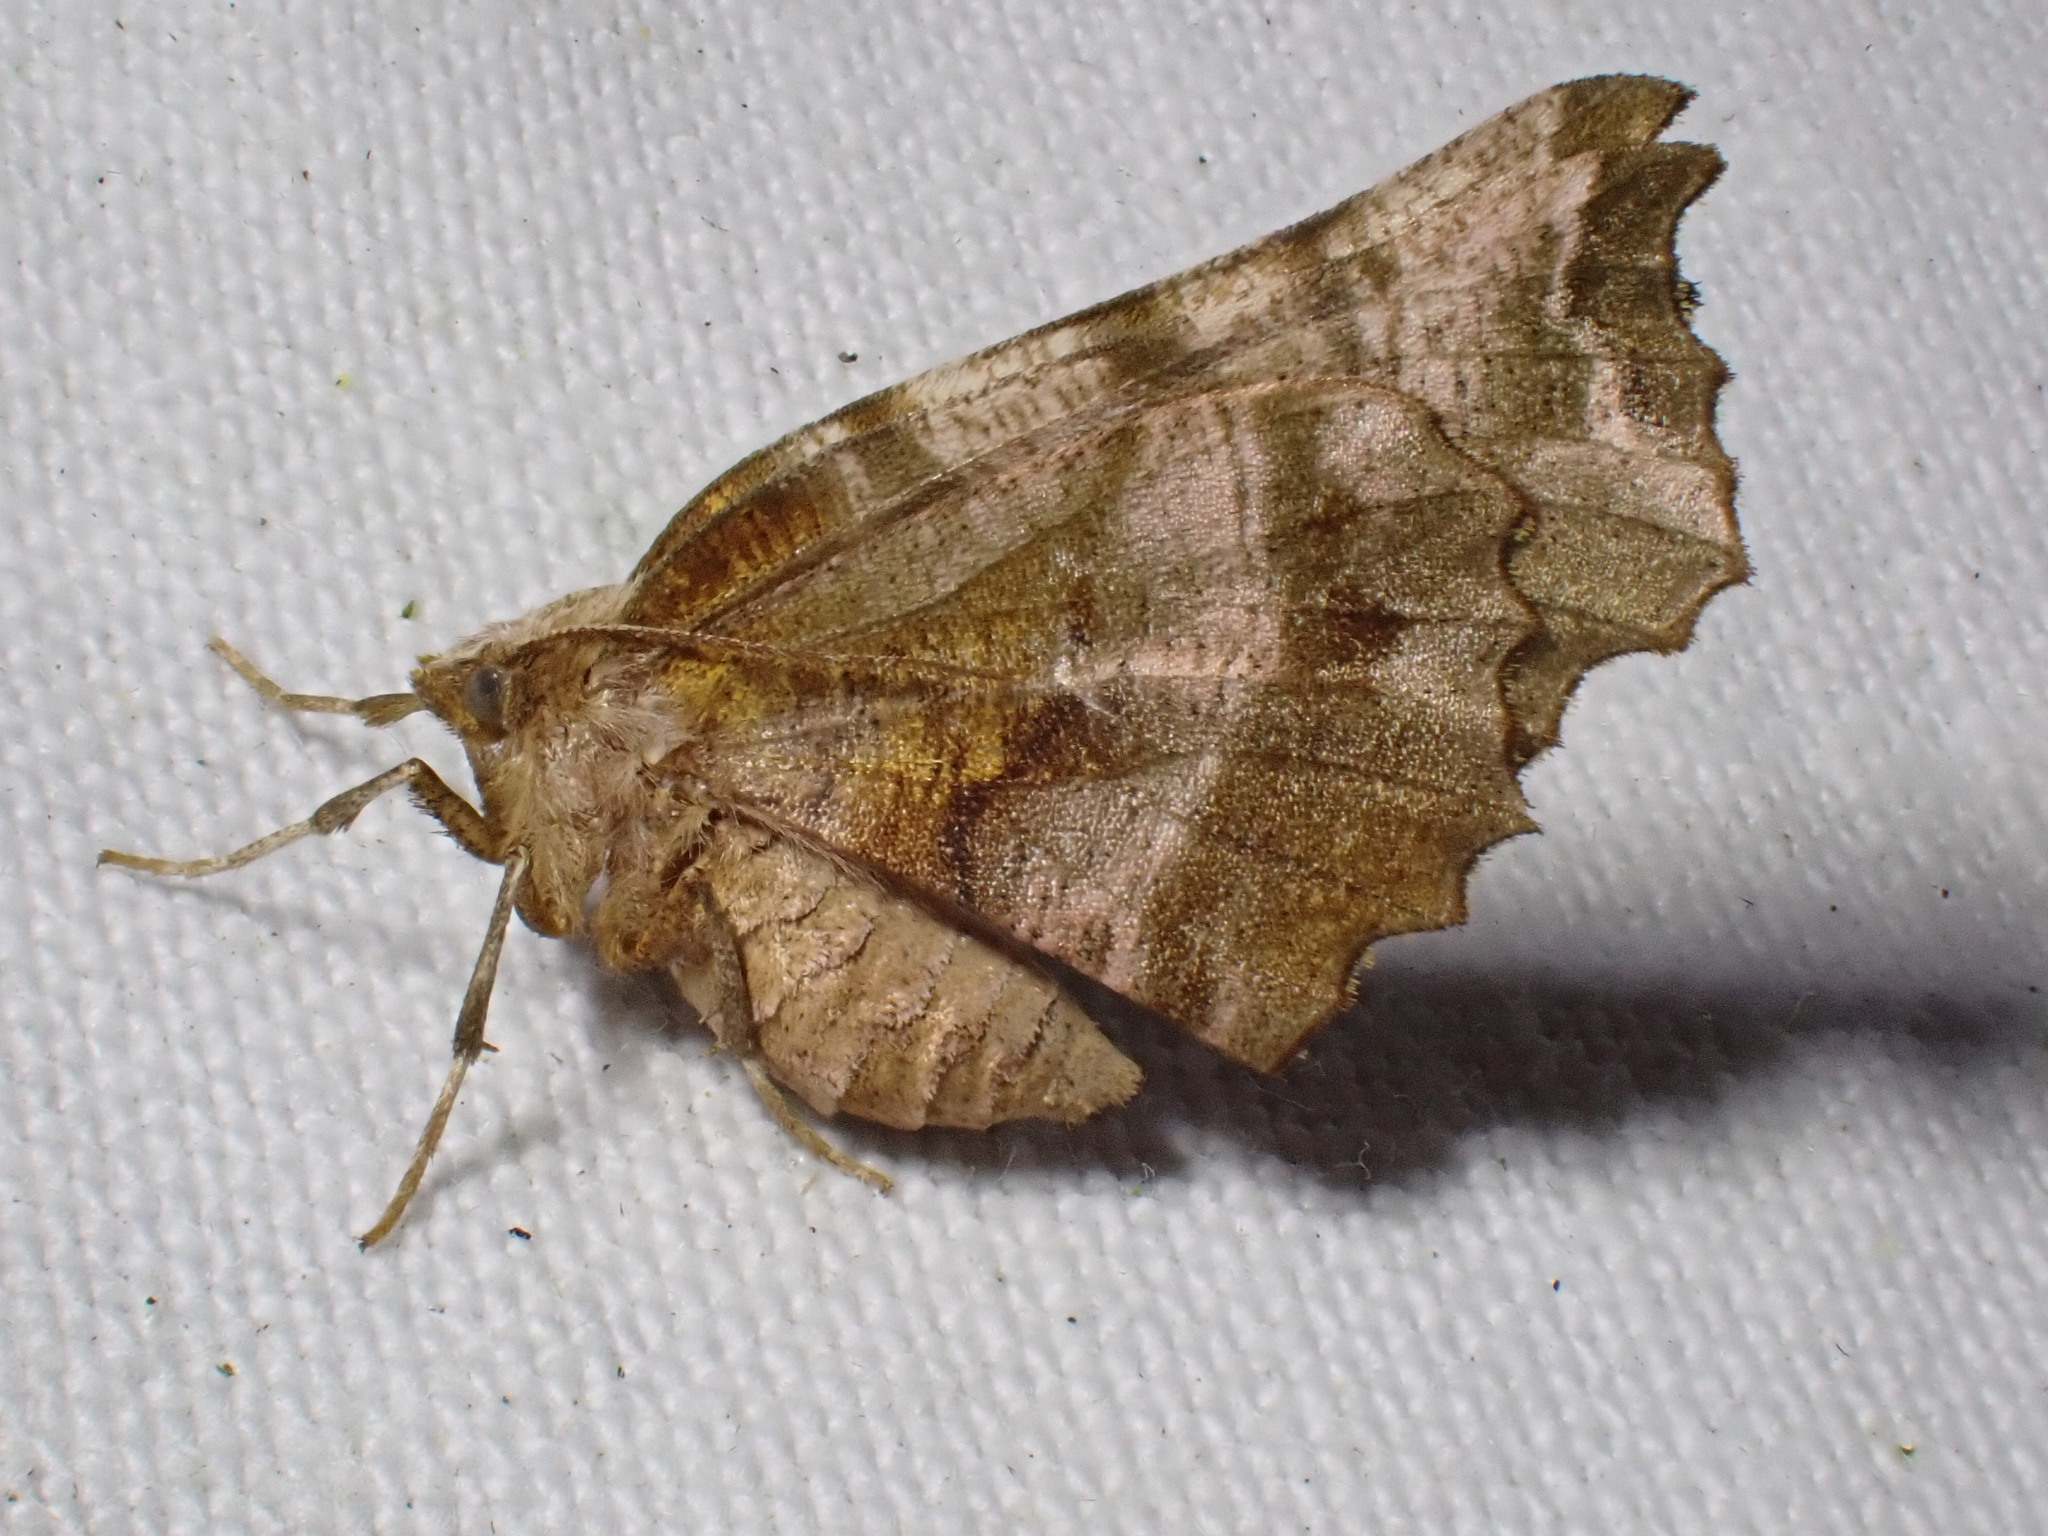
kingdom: Animalia
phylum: Arthropoda
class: Insecta
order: Lepidoptera
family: Geometridae
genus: Selenia
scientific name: Selenia dentaria
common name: Early thorn
